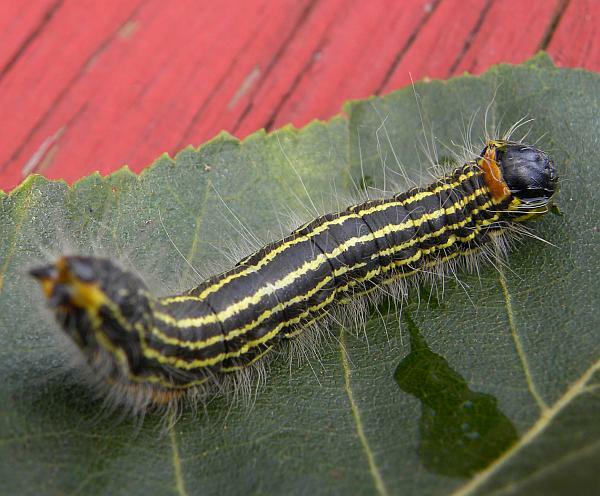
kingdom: Animalia
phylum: Arthropoda
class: Insecta
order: Lepidoptera
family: Notodontidae
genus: Datana
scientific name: Datana ministra
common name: Yellow-necked caterpillar moth
